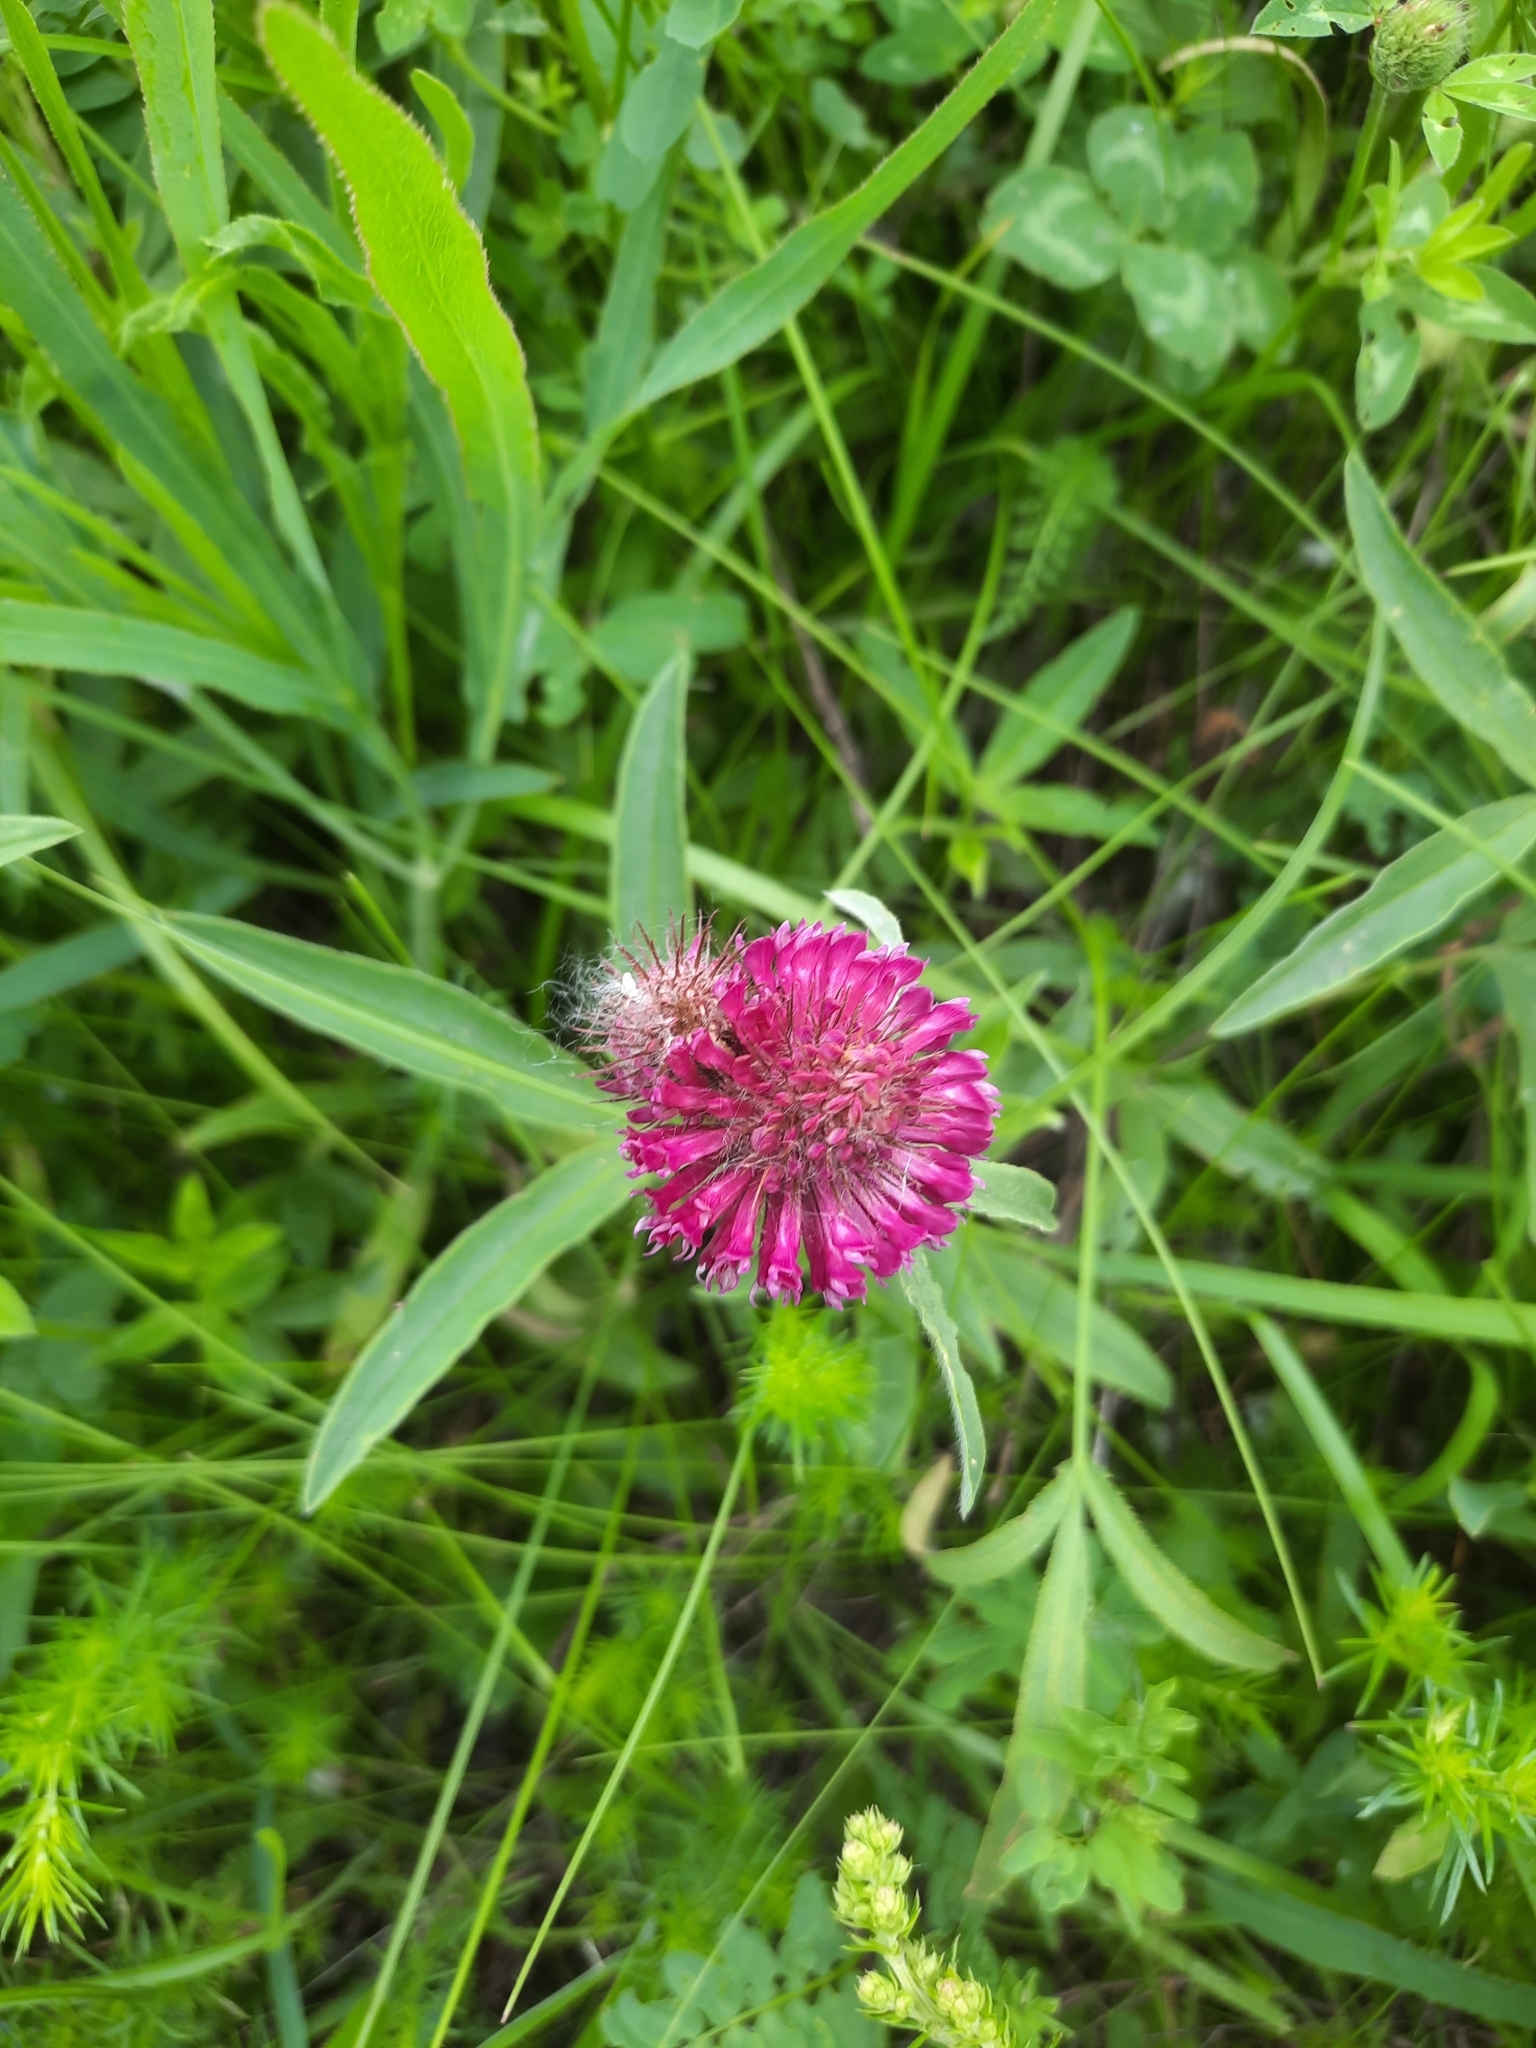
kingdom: Plantae
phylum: Tracheophyta
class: Magnoliopsida
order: Fabales
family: Fabaceae
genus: Trifolium
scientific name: Trifolium alpestre
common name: Owl-head clover
